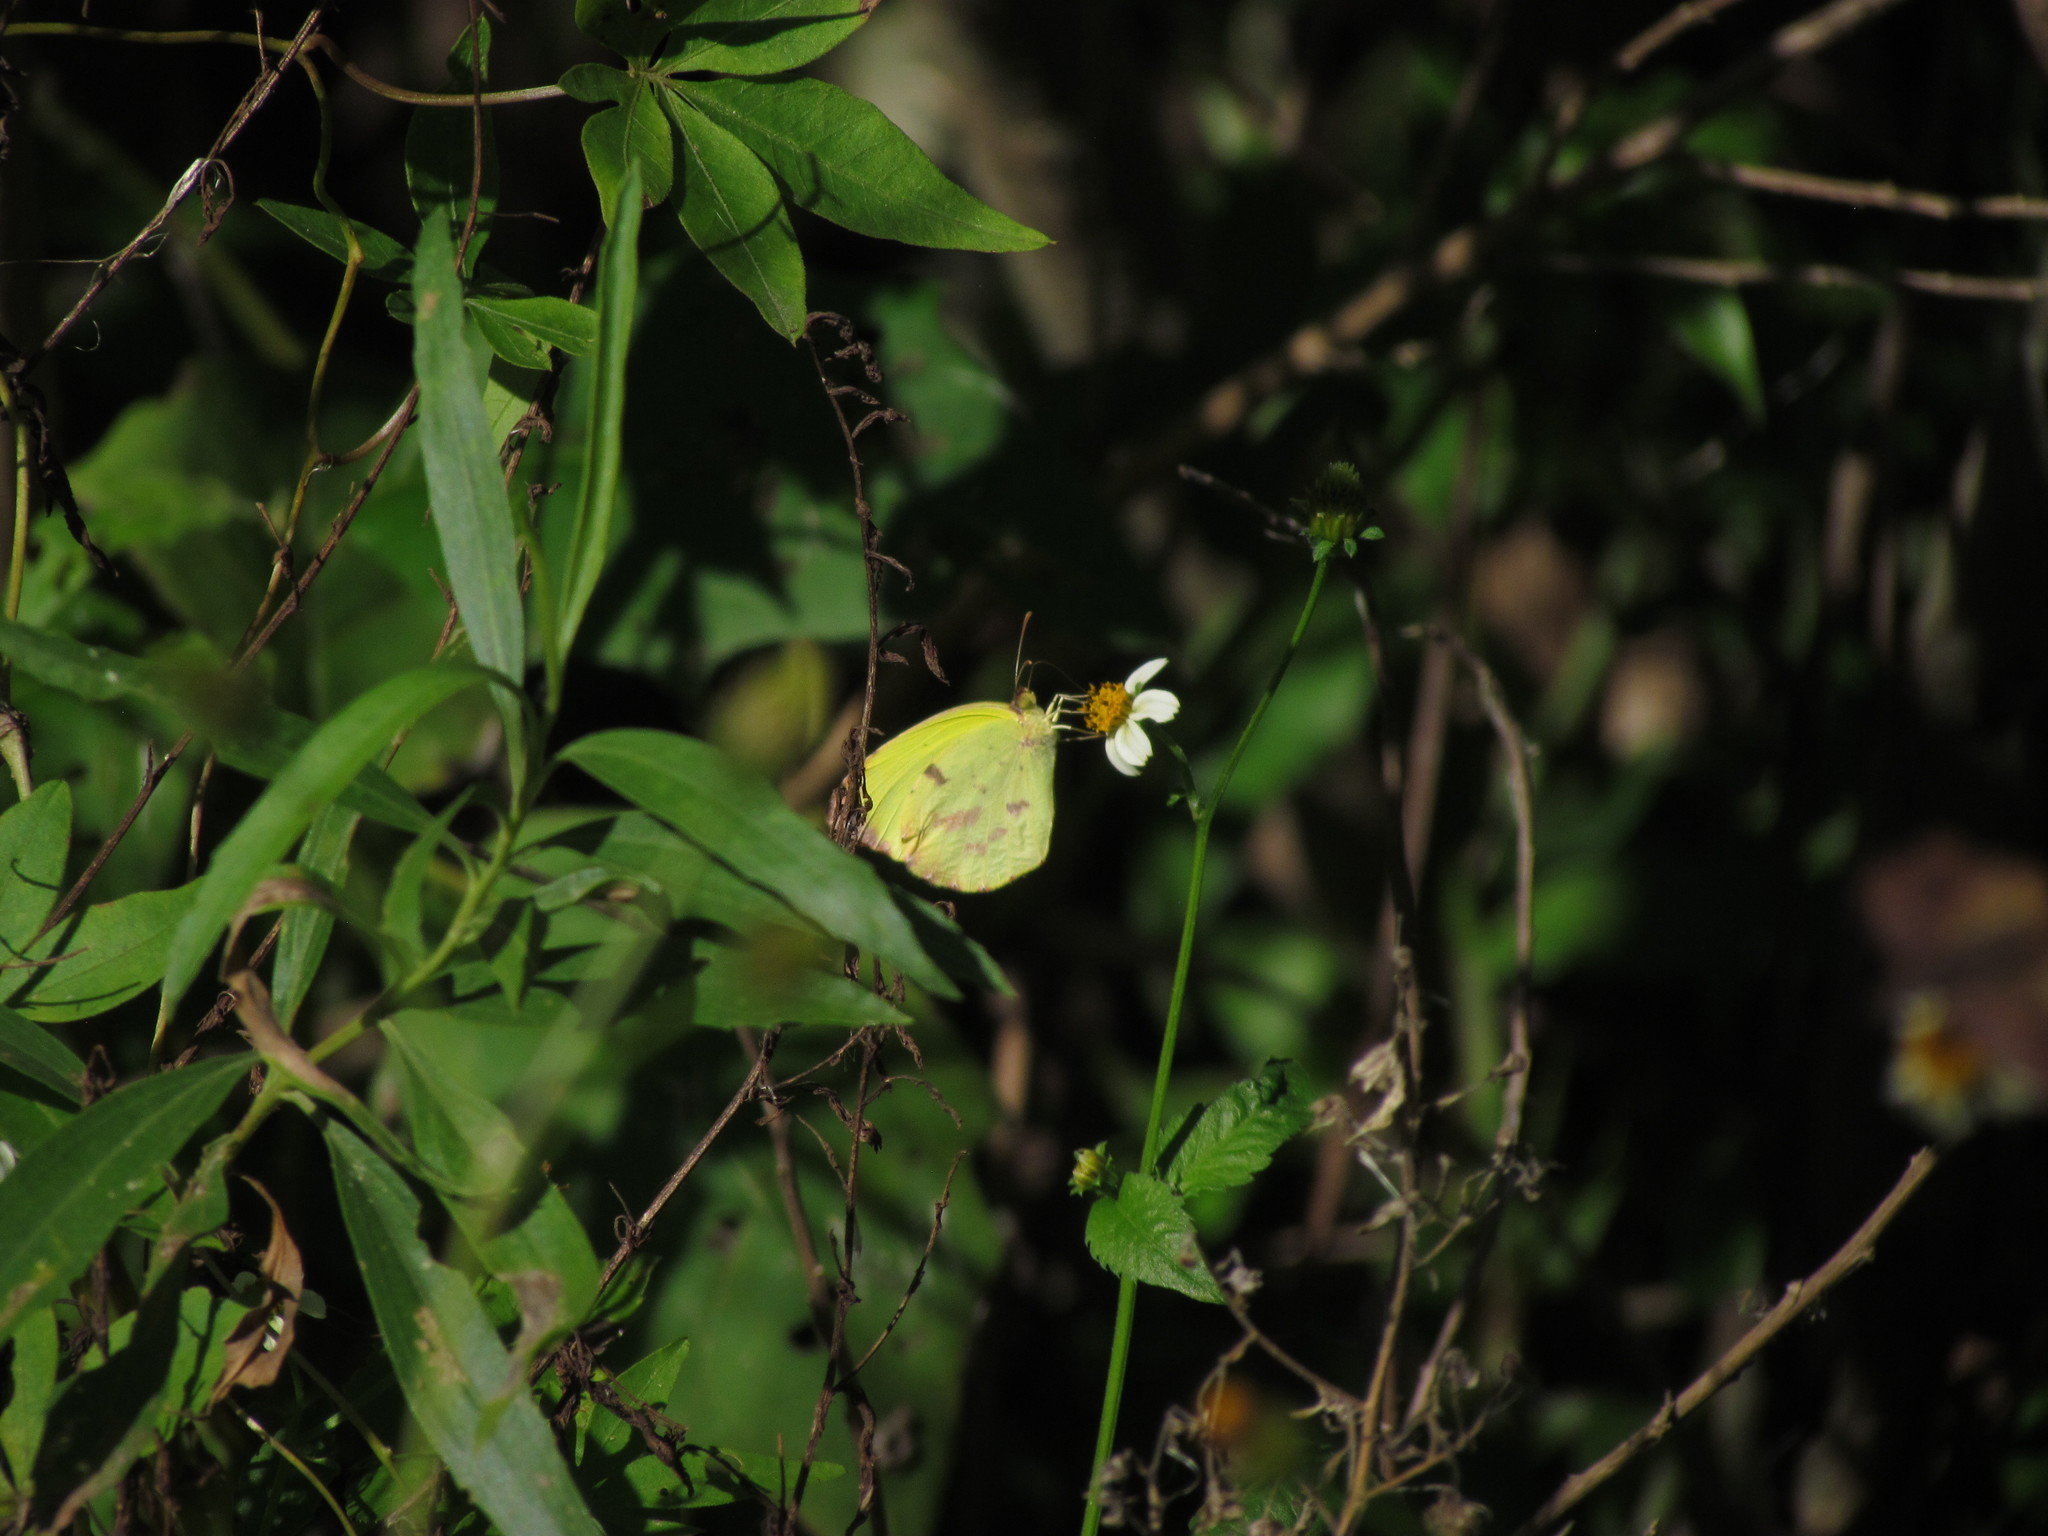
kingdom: Animalia
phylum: Arthropoda
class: Insecta
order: Lepidoptera
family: Pieridae
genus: Teriocolias
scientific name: Teriocolias
